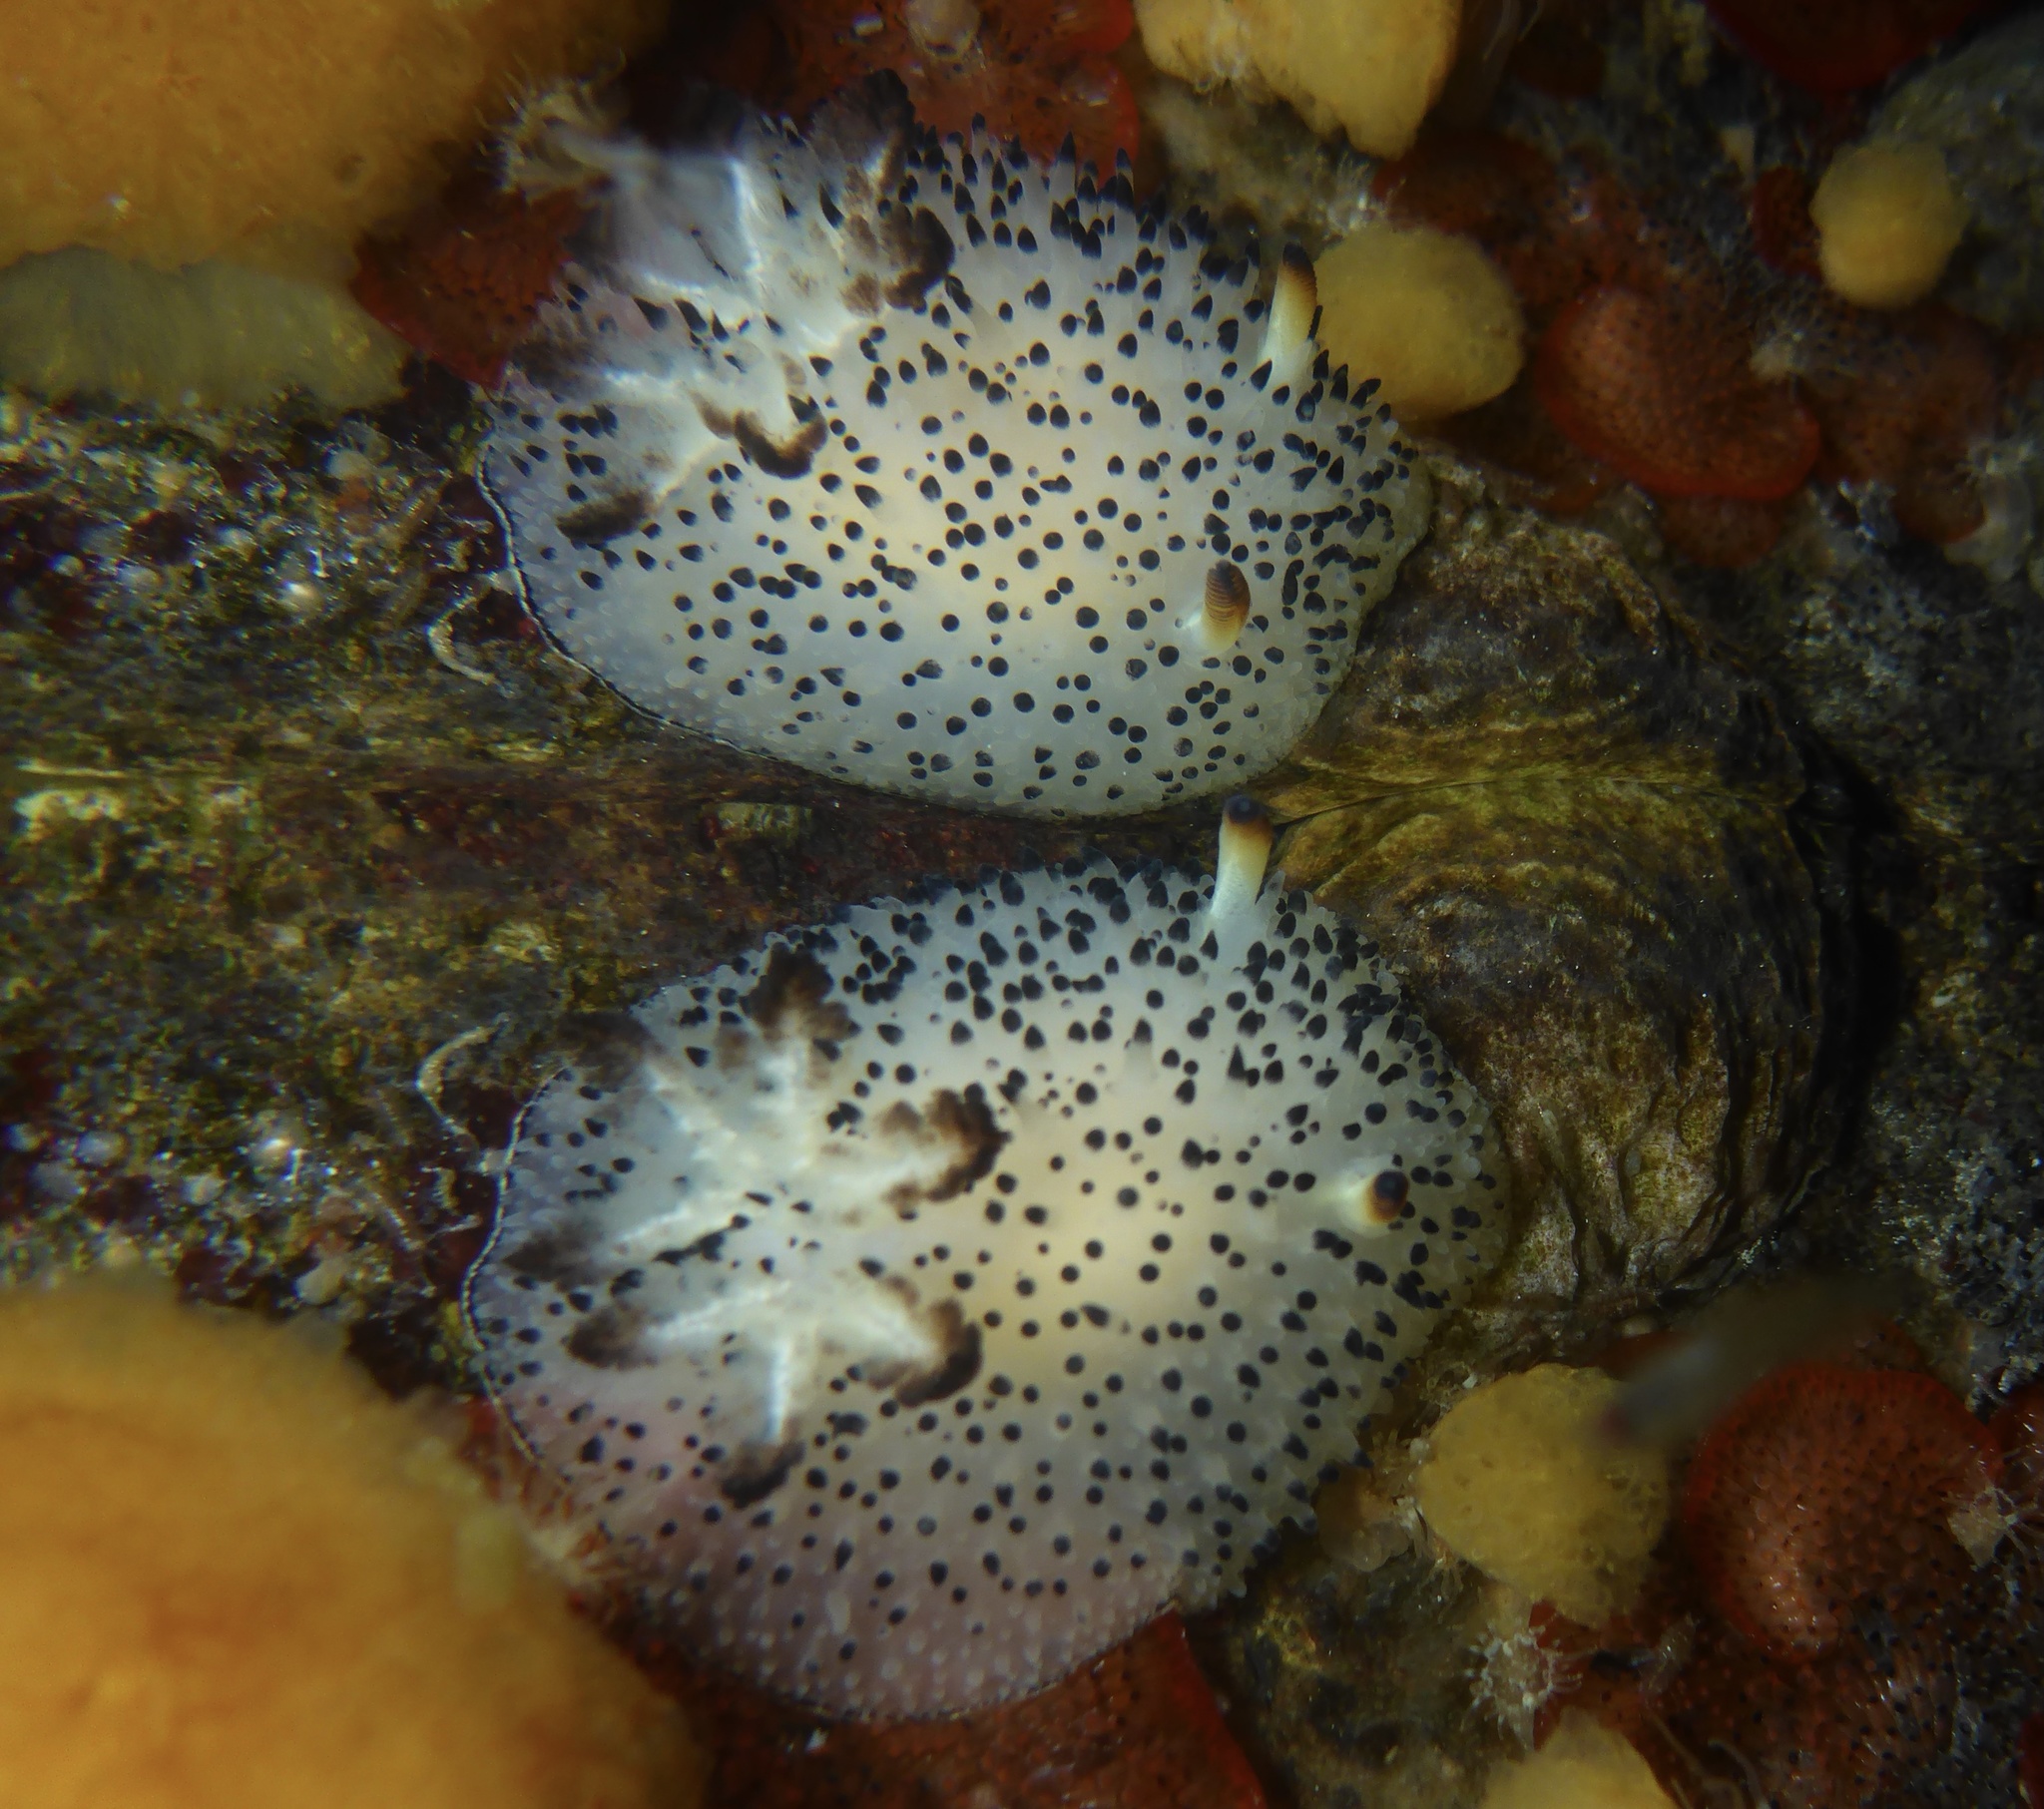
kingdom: Animalia
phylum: Mollusca
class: Gastropoda
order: Nudibranchia
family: Onchidorididae
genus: Acanthodoris
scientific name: Acanthodoris rhodoceras
